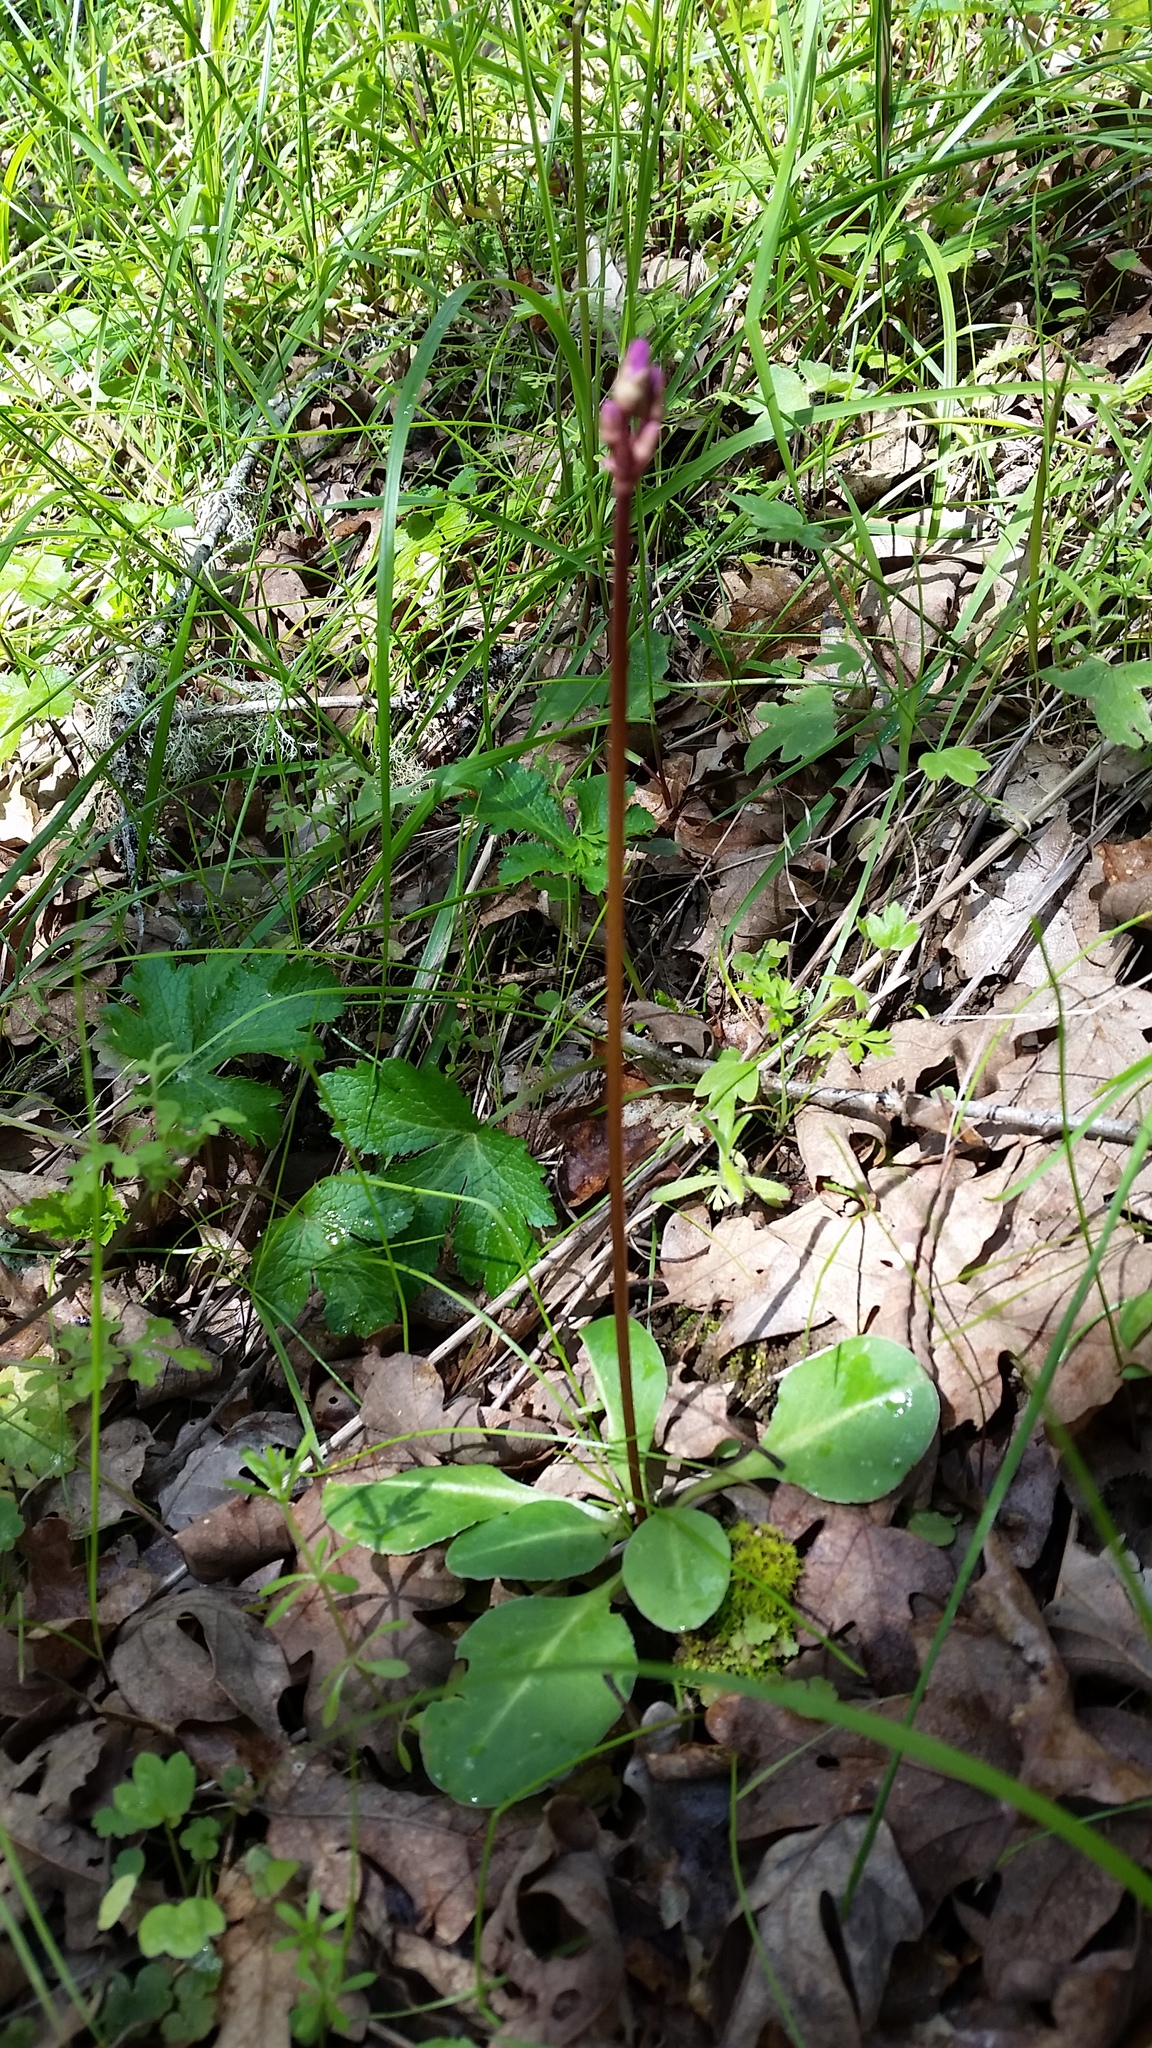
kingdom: Plantae
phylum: Tracheophyta
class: Magnoliopsida
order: Ericales
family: Primulaceae
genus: Dodecatheon
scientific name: Dodecatheon hendersonii
